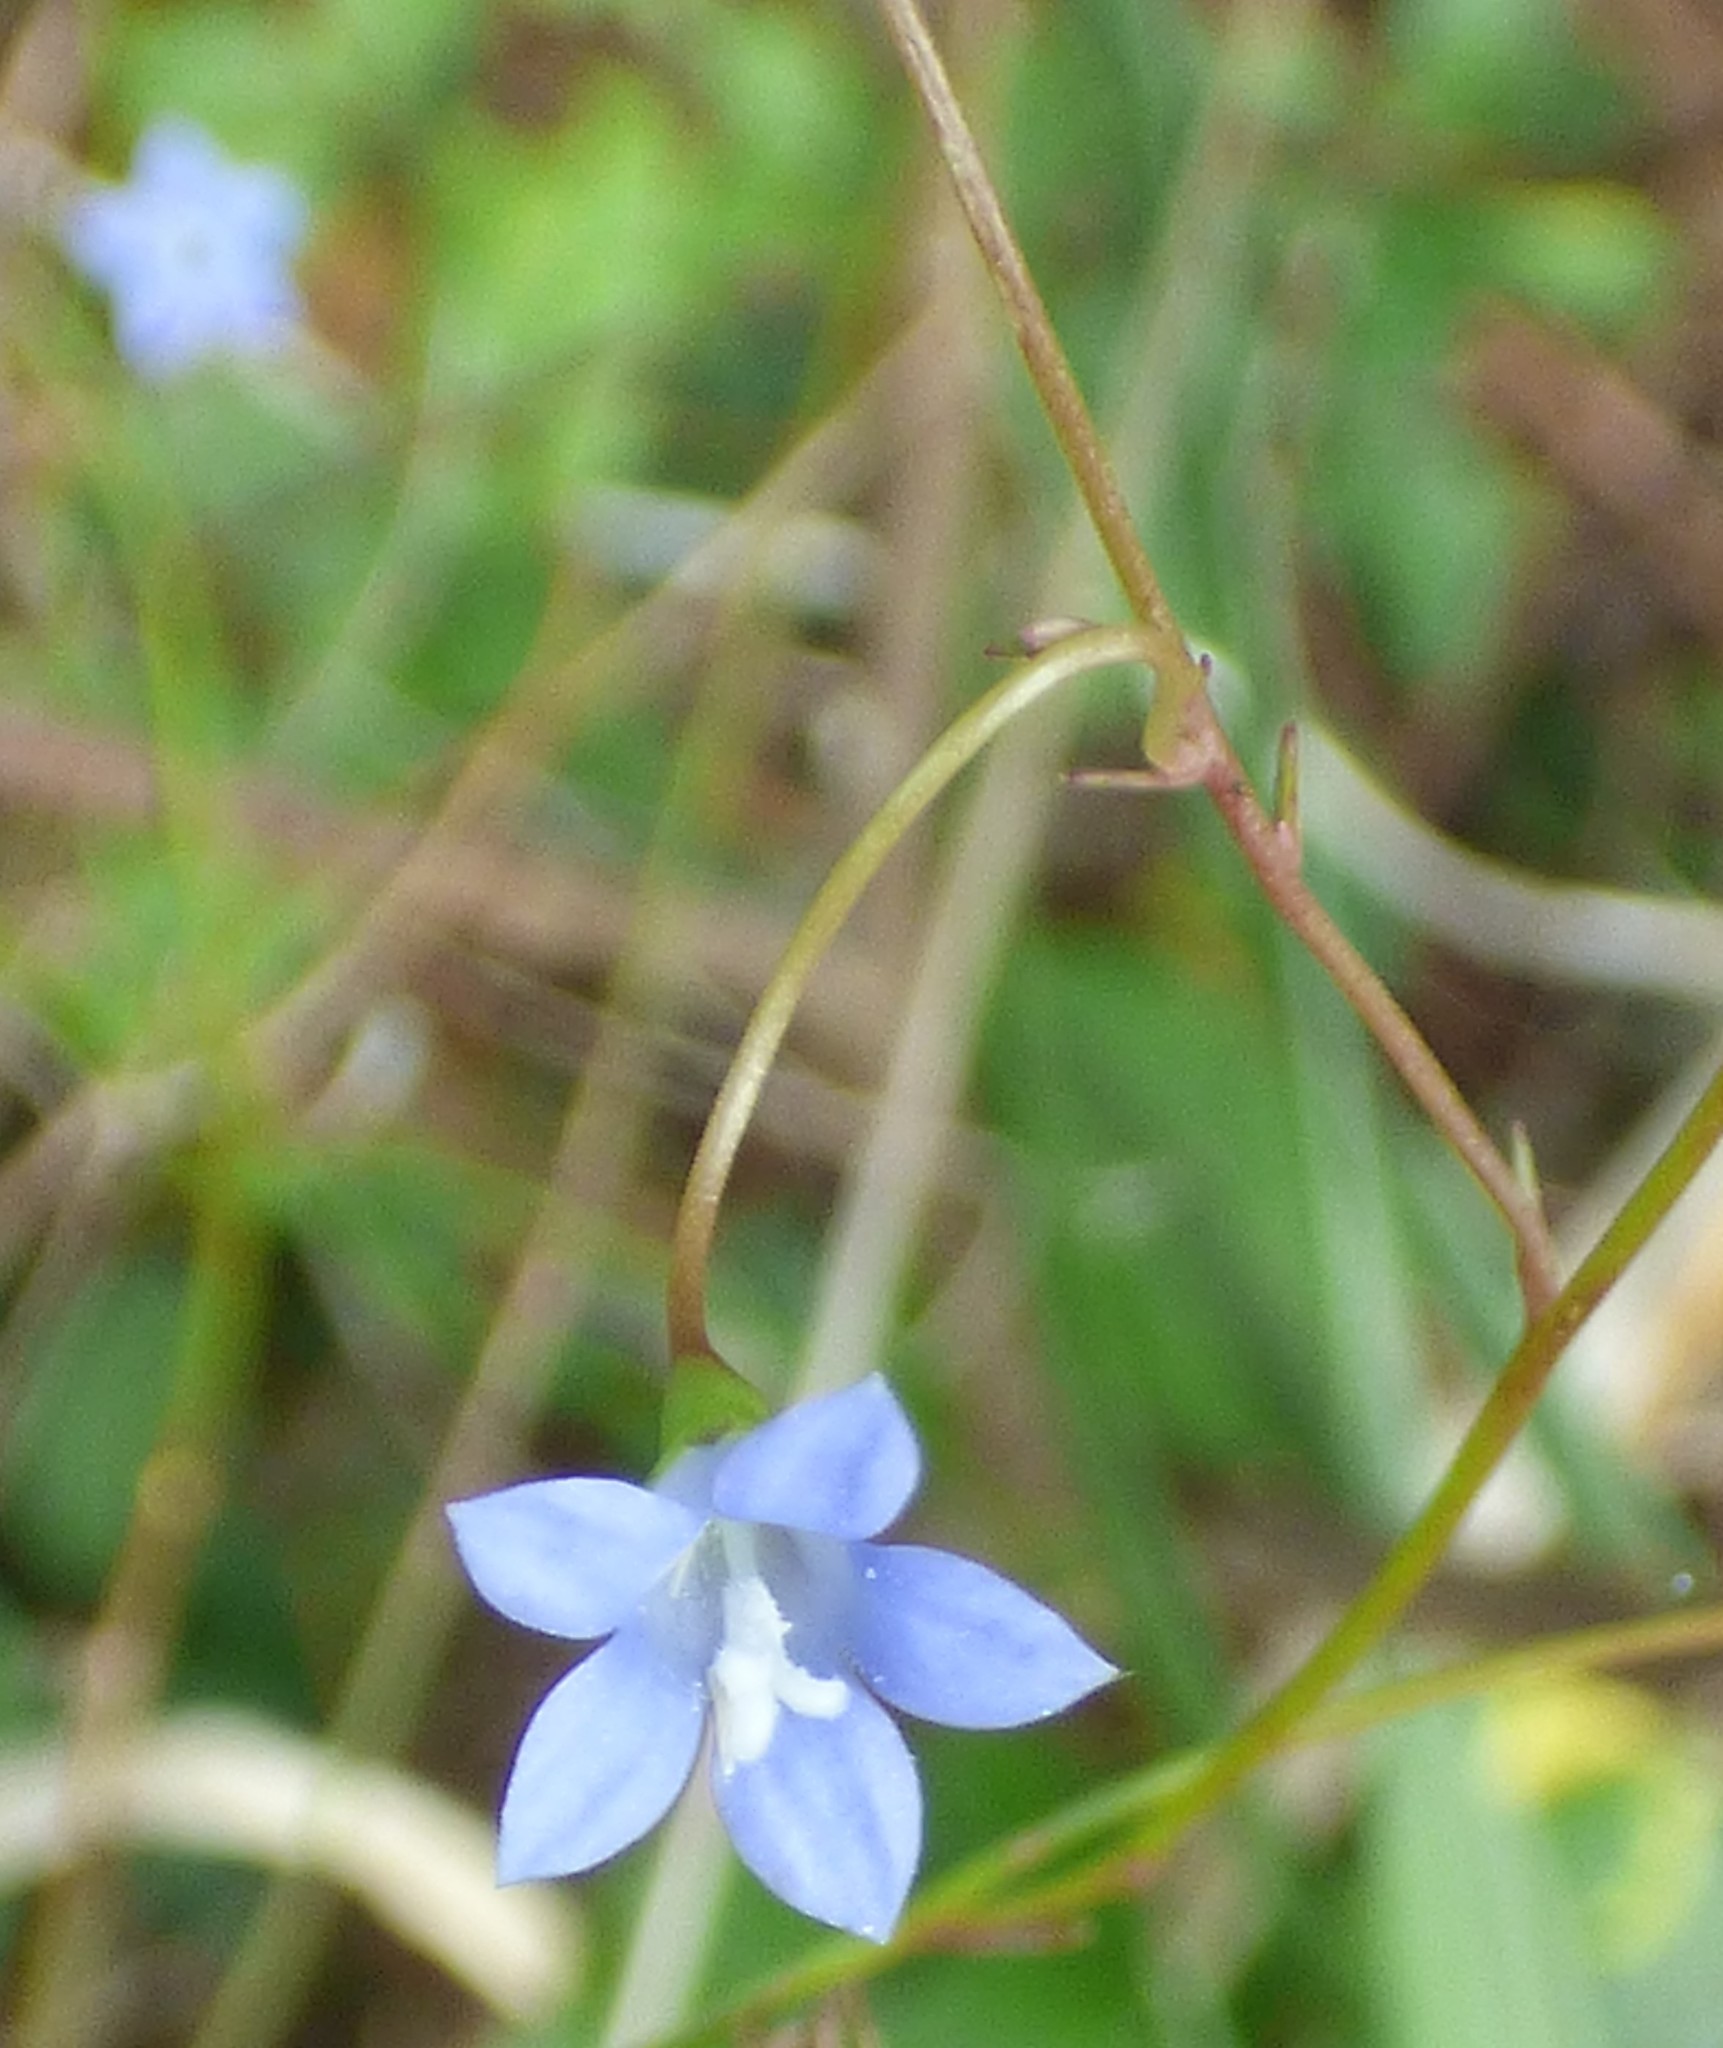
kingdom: Plantae
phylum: Tracheophyta
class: Magnoliopsida
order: Asterales
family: Campanulaceae
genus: Wahlenbergia
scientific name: Wahlenbergia marginata
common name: Southern rockbell
